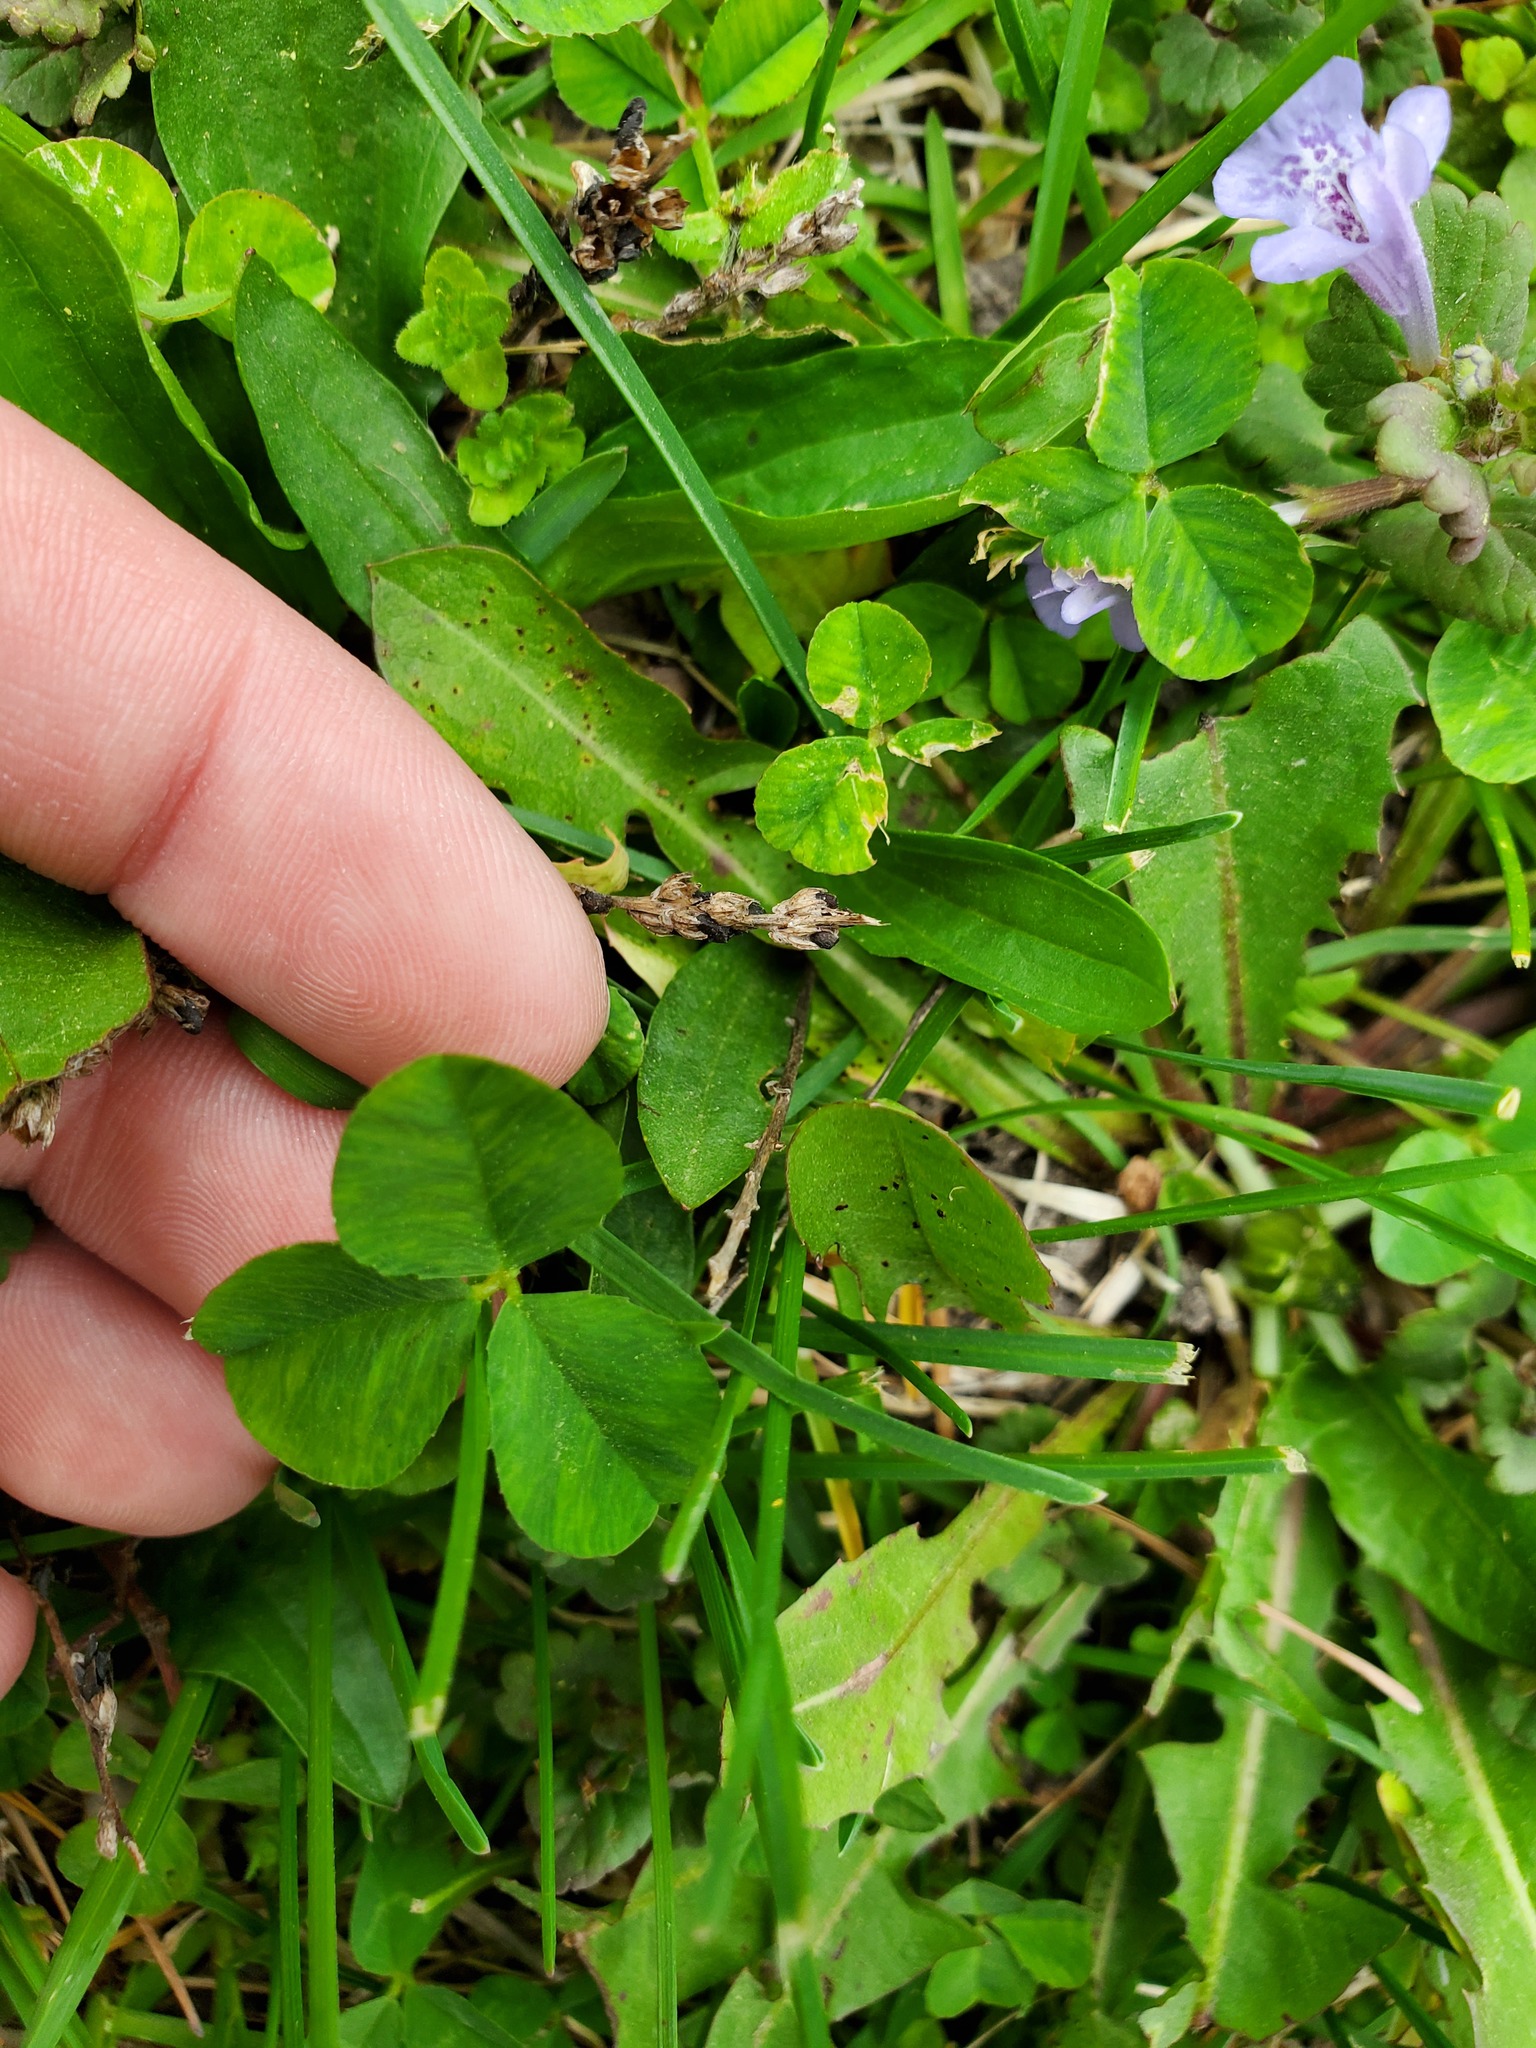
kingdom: Plantae
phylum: Tracheophyta
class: Magnoliopsida
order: Fabales
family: Fabaceae
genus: Trifolium
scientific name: Trifolium repens
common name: White clover
